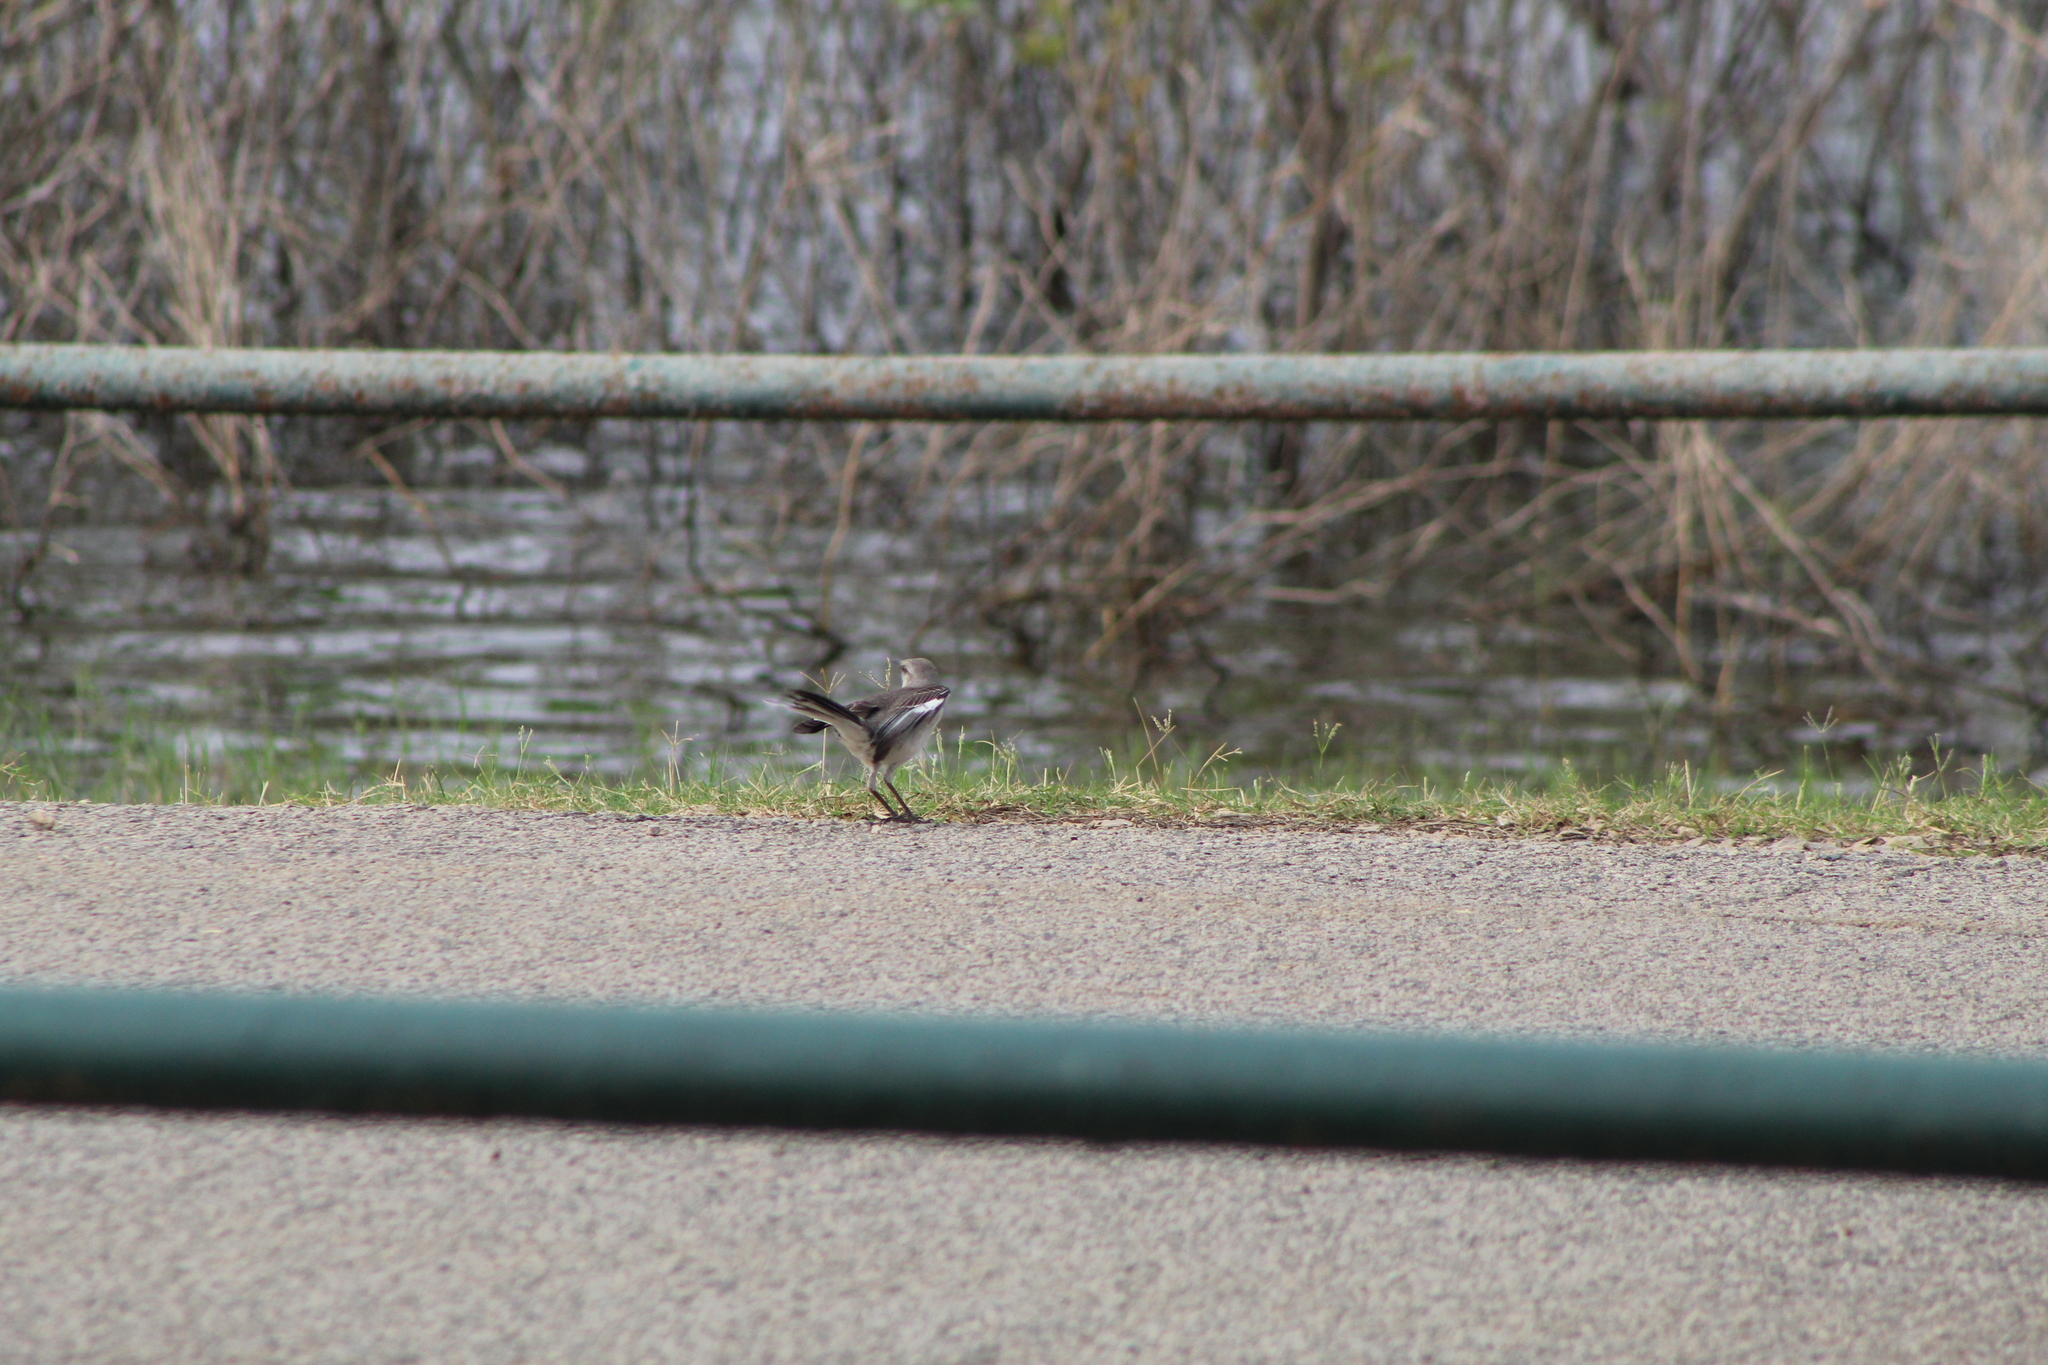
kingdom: Animalia
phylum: Chordata
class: Aves
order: Passeriformes
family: Mimidae
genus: Mimus
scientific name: Mimus polyglottos
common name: Northern mockingbird
